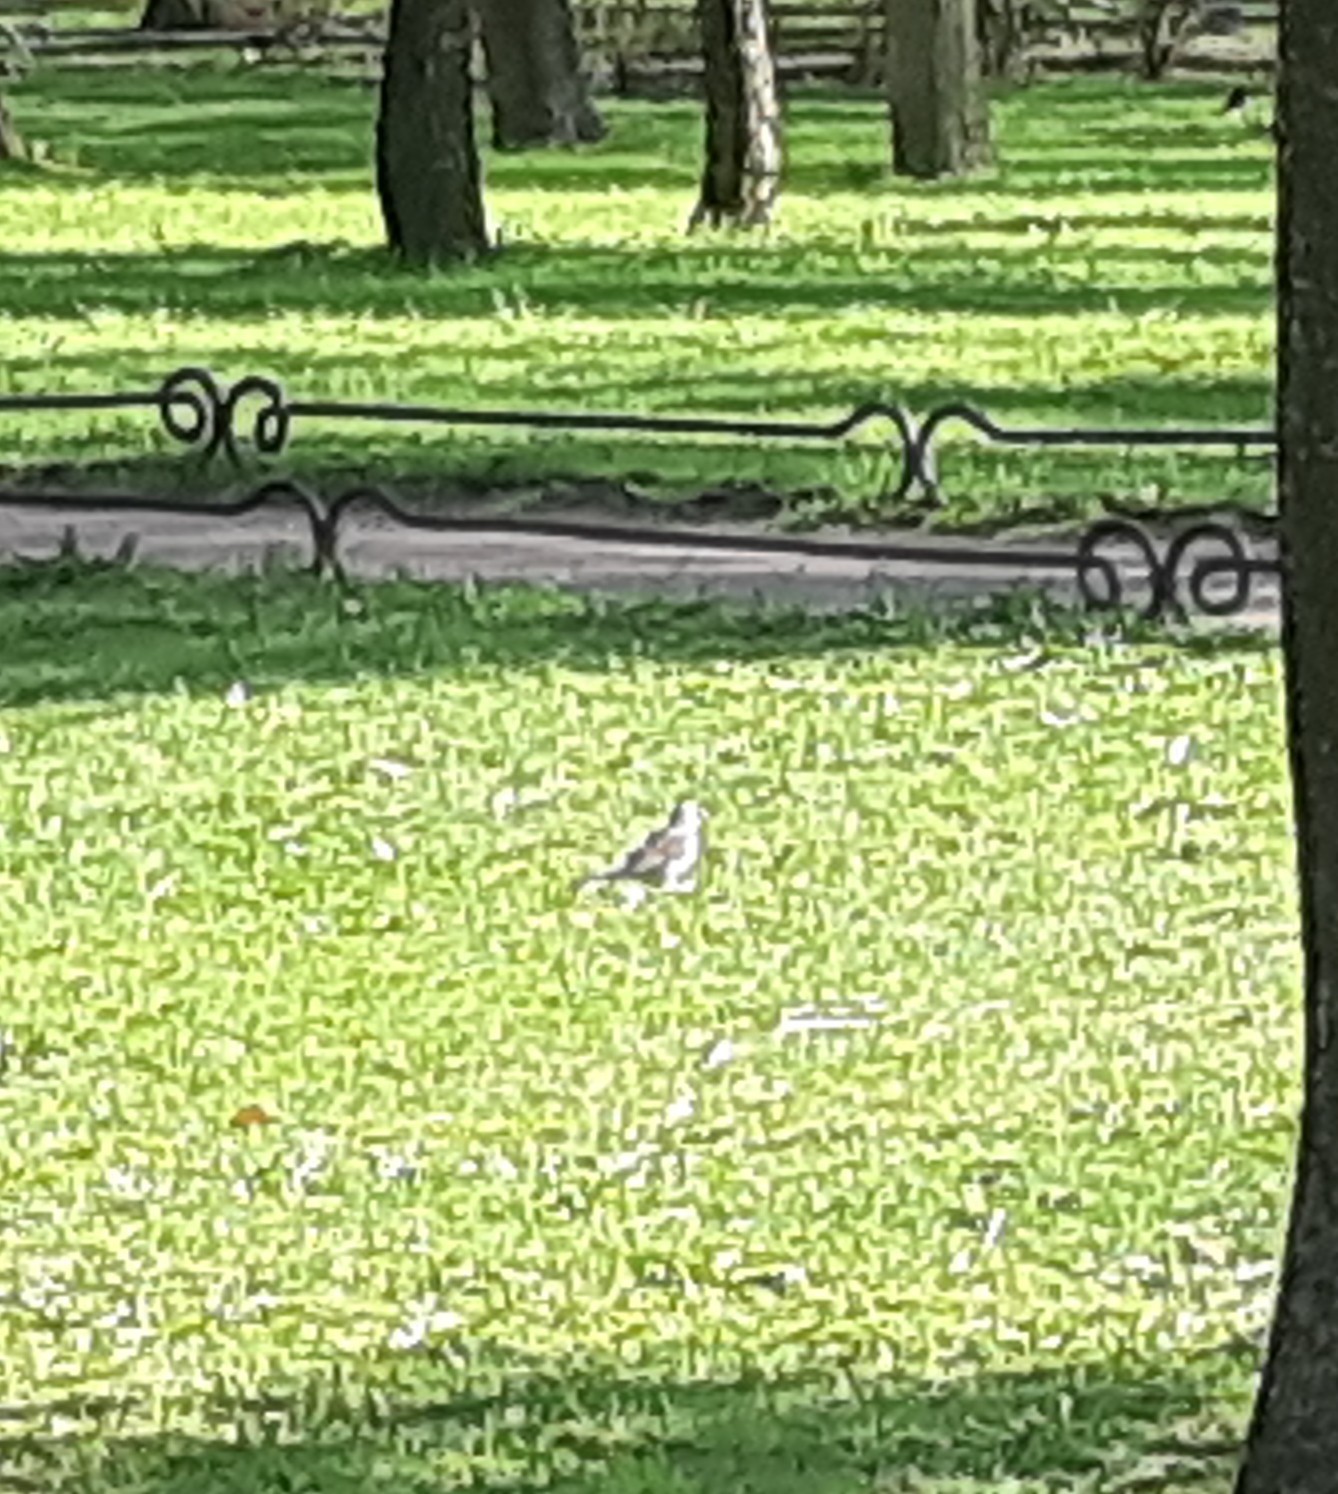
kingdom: Animalia
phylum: Chordata
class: Aves
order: Passeriformes
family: Turdidae
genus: Turdus
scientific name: Turdus pilaris
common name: Fieldfare
